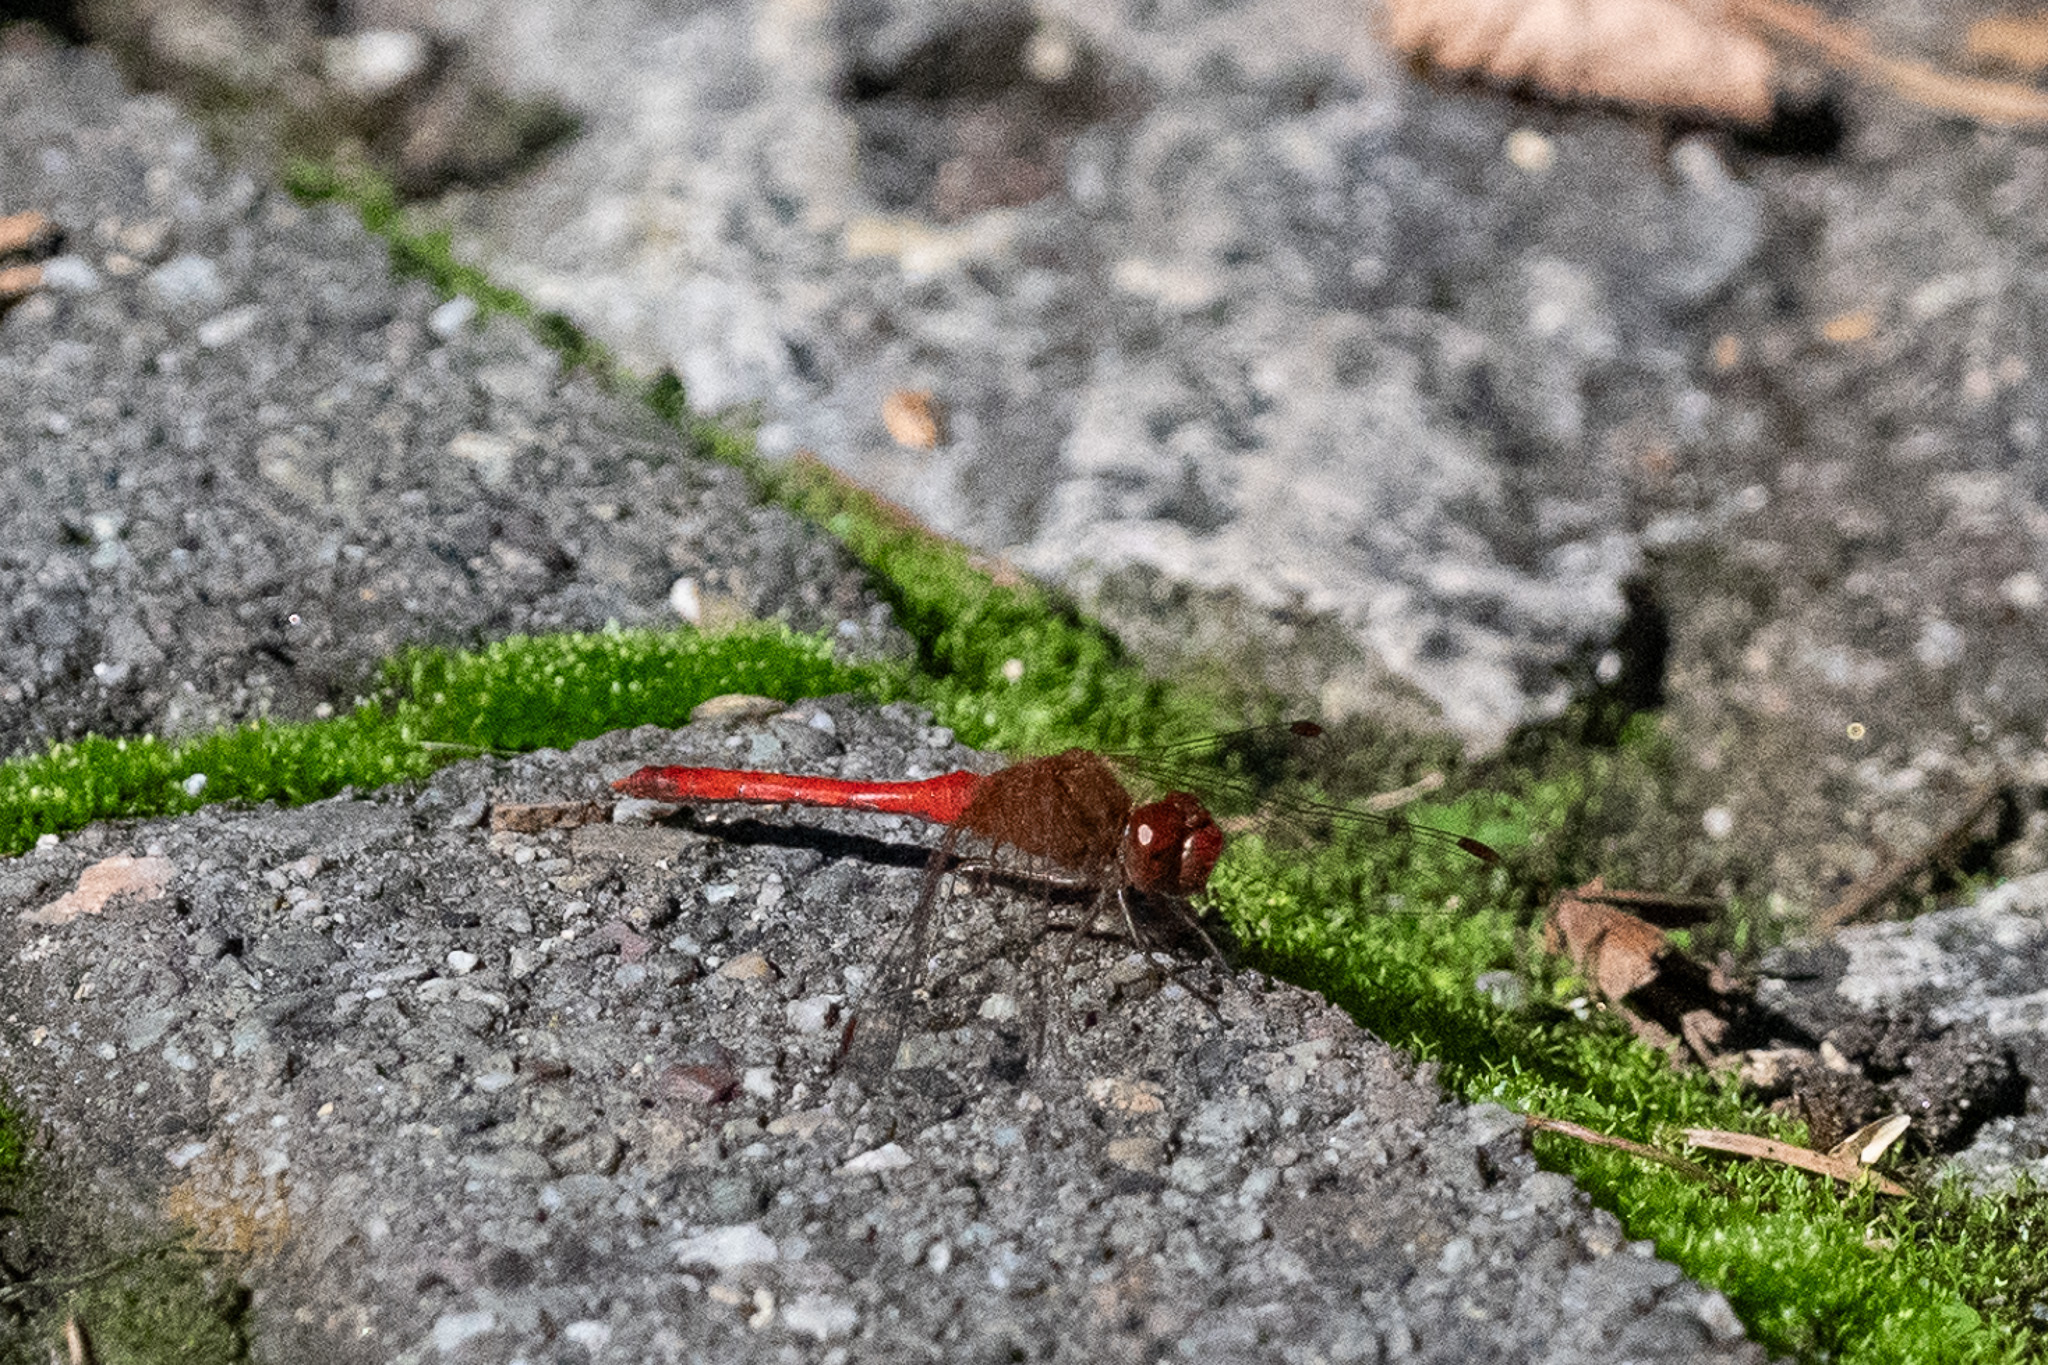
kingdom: Animalia
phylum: Arthropoda
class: Insecta
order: Odonata
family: Libellulidae
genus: Sympetrum
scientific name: Sympetrum vicinum
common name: Autumn meadowhawk
